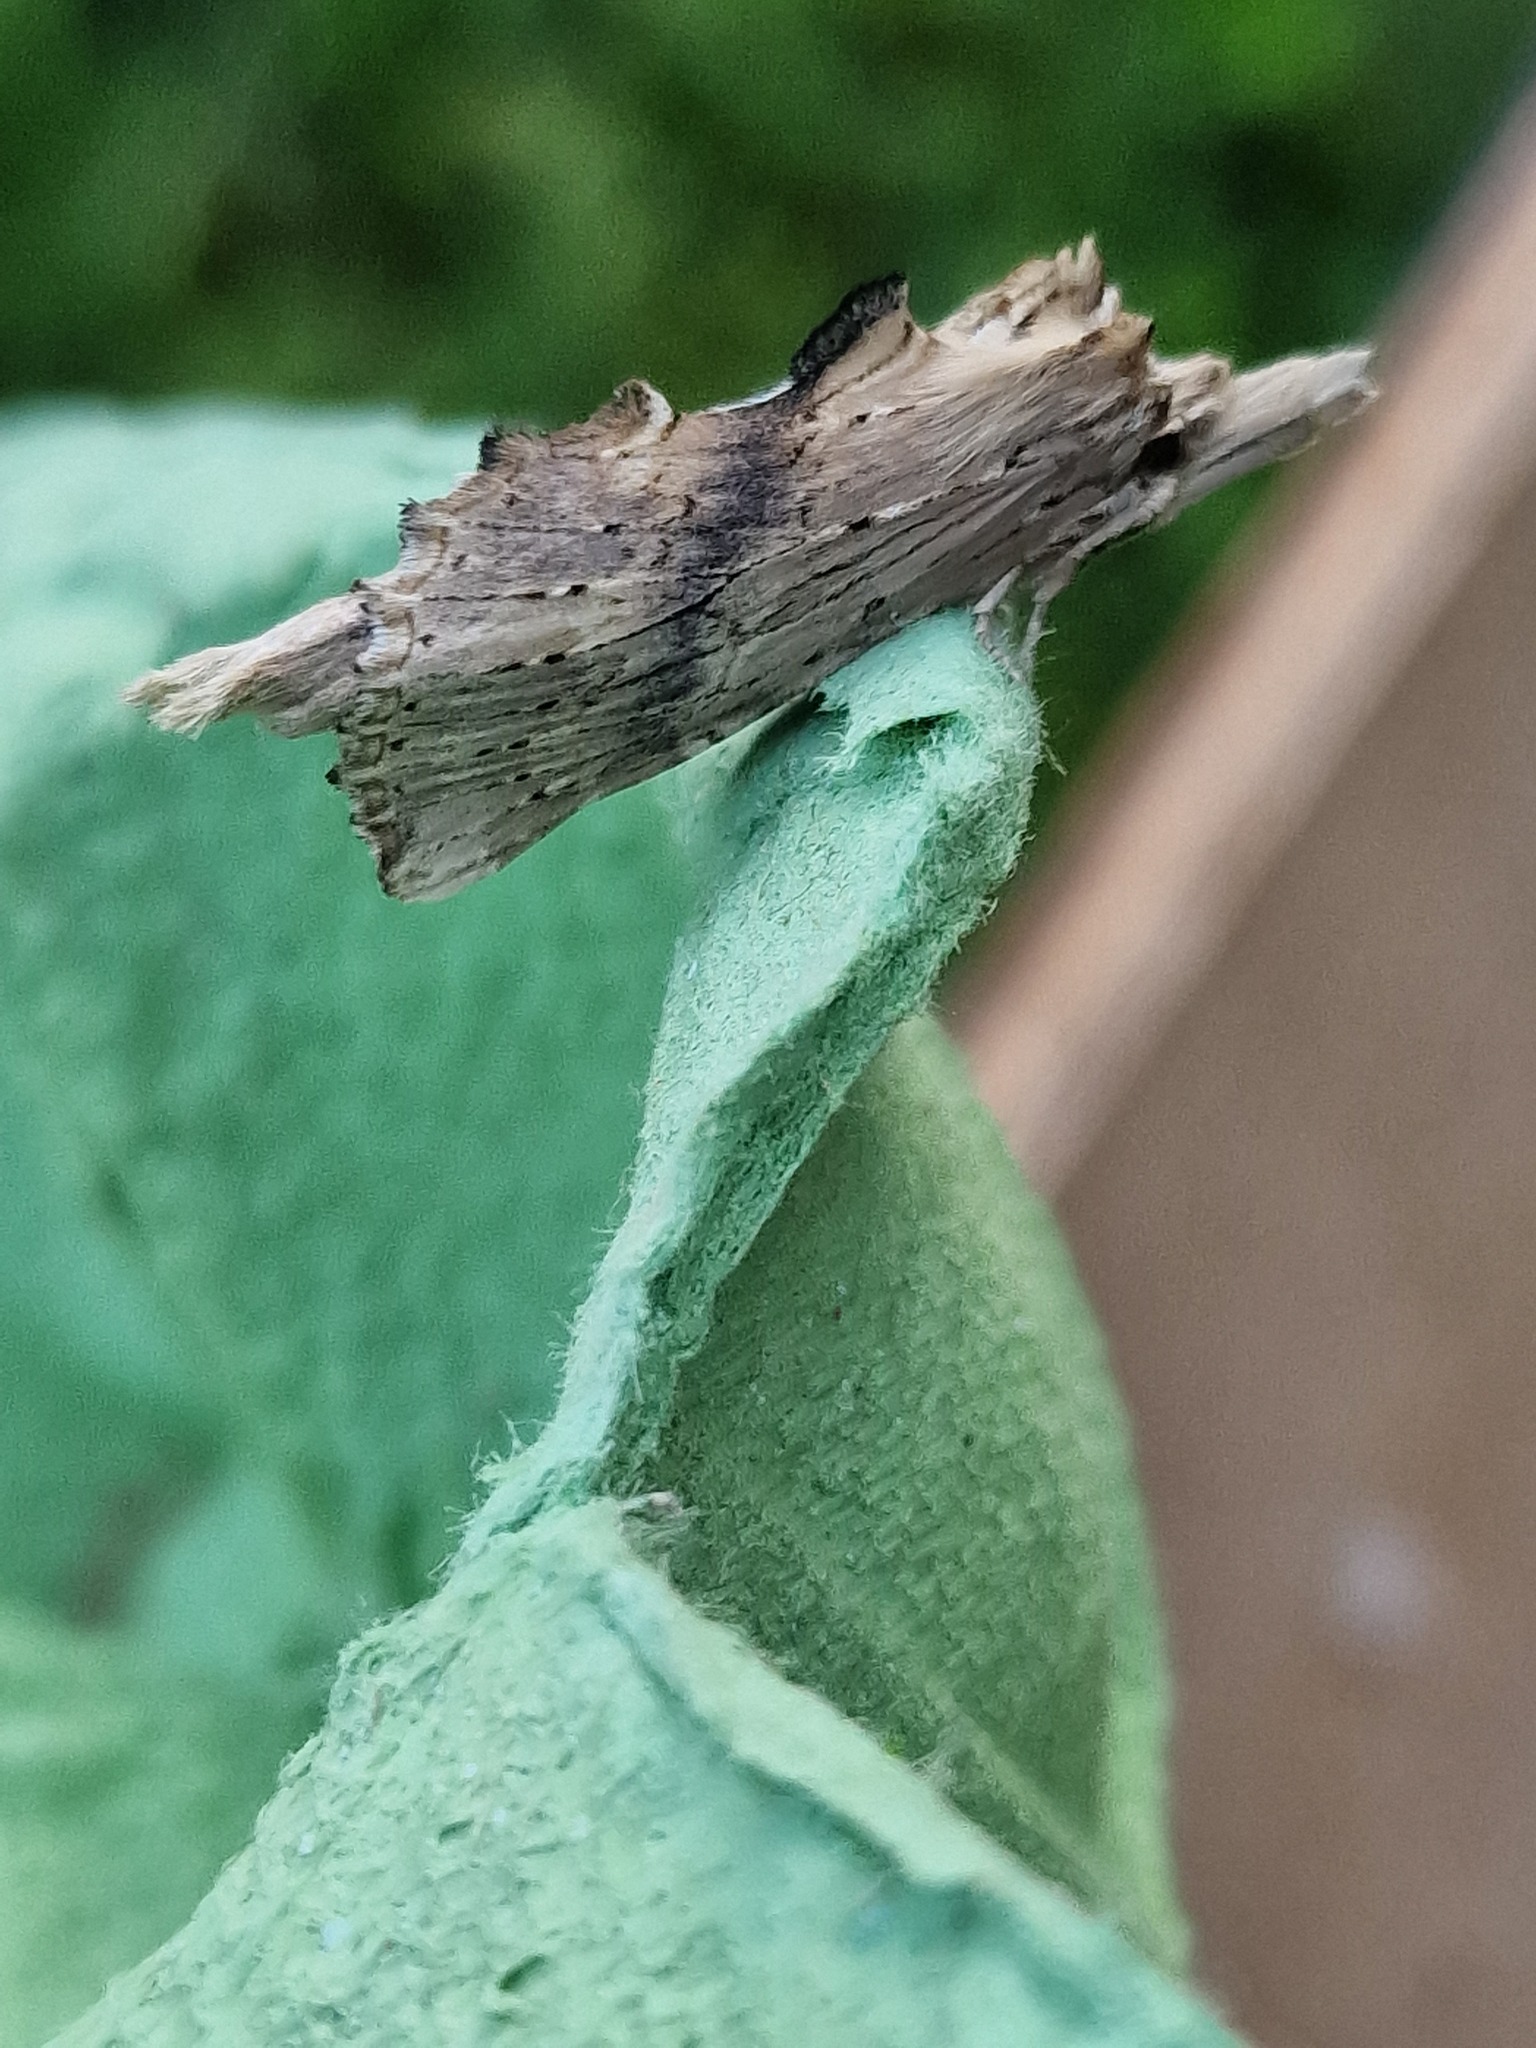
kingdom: Animalia
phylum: Arthropoda
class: Insecta
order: Lepidoptera
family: Notodontidae
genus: Pterostoma
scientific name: Pterostoma palpina
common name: Pale prominent
